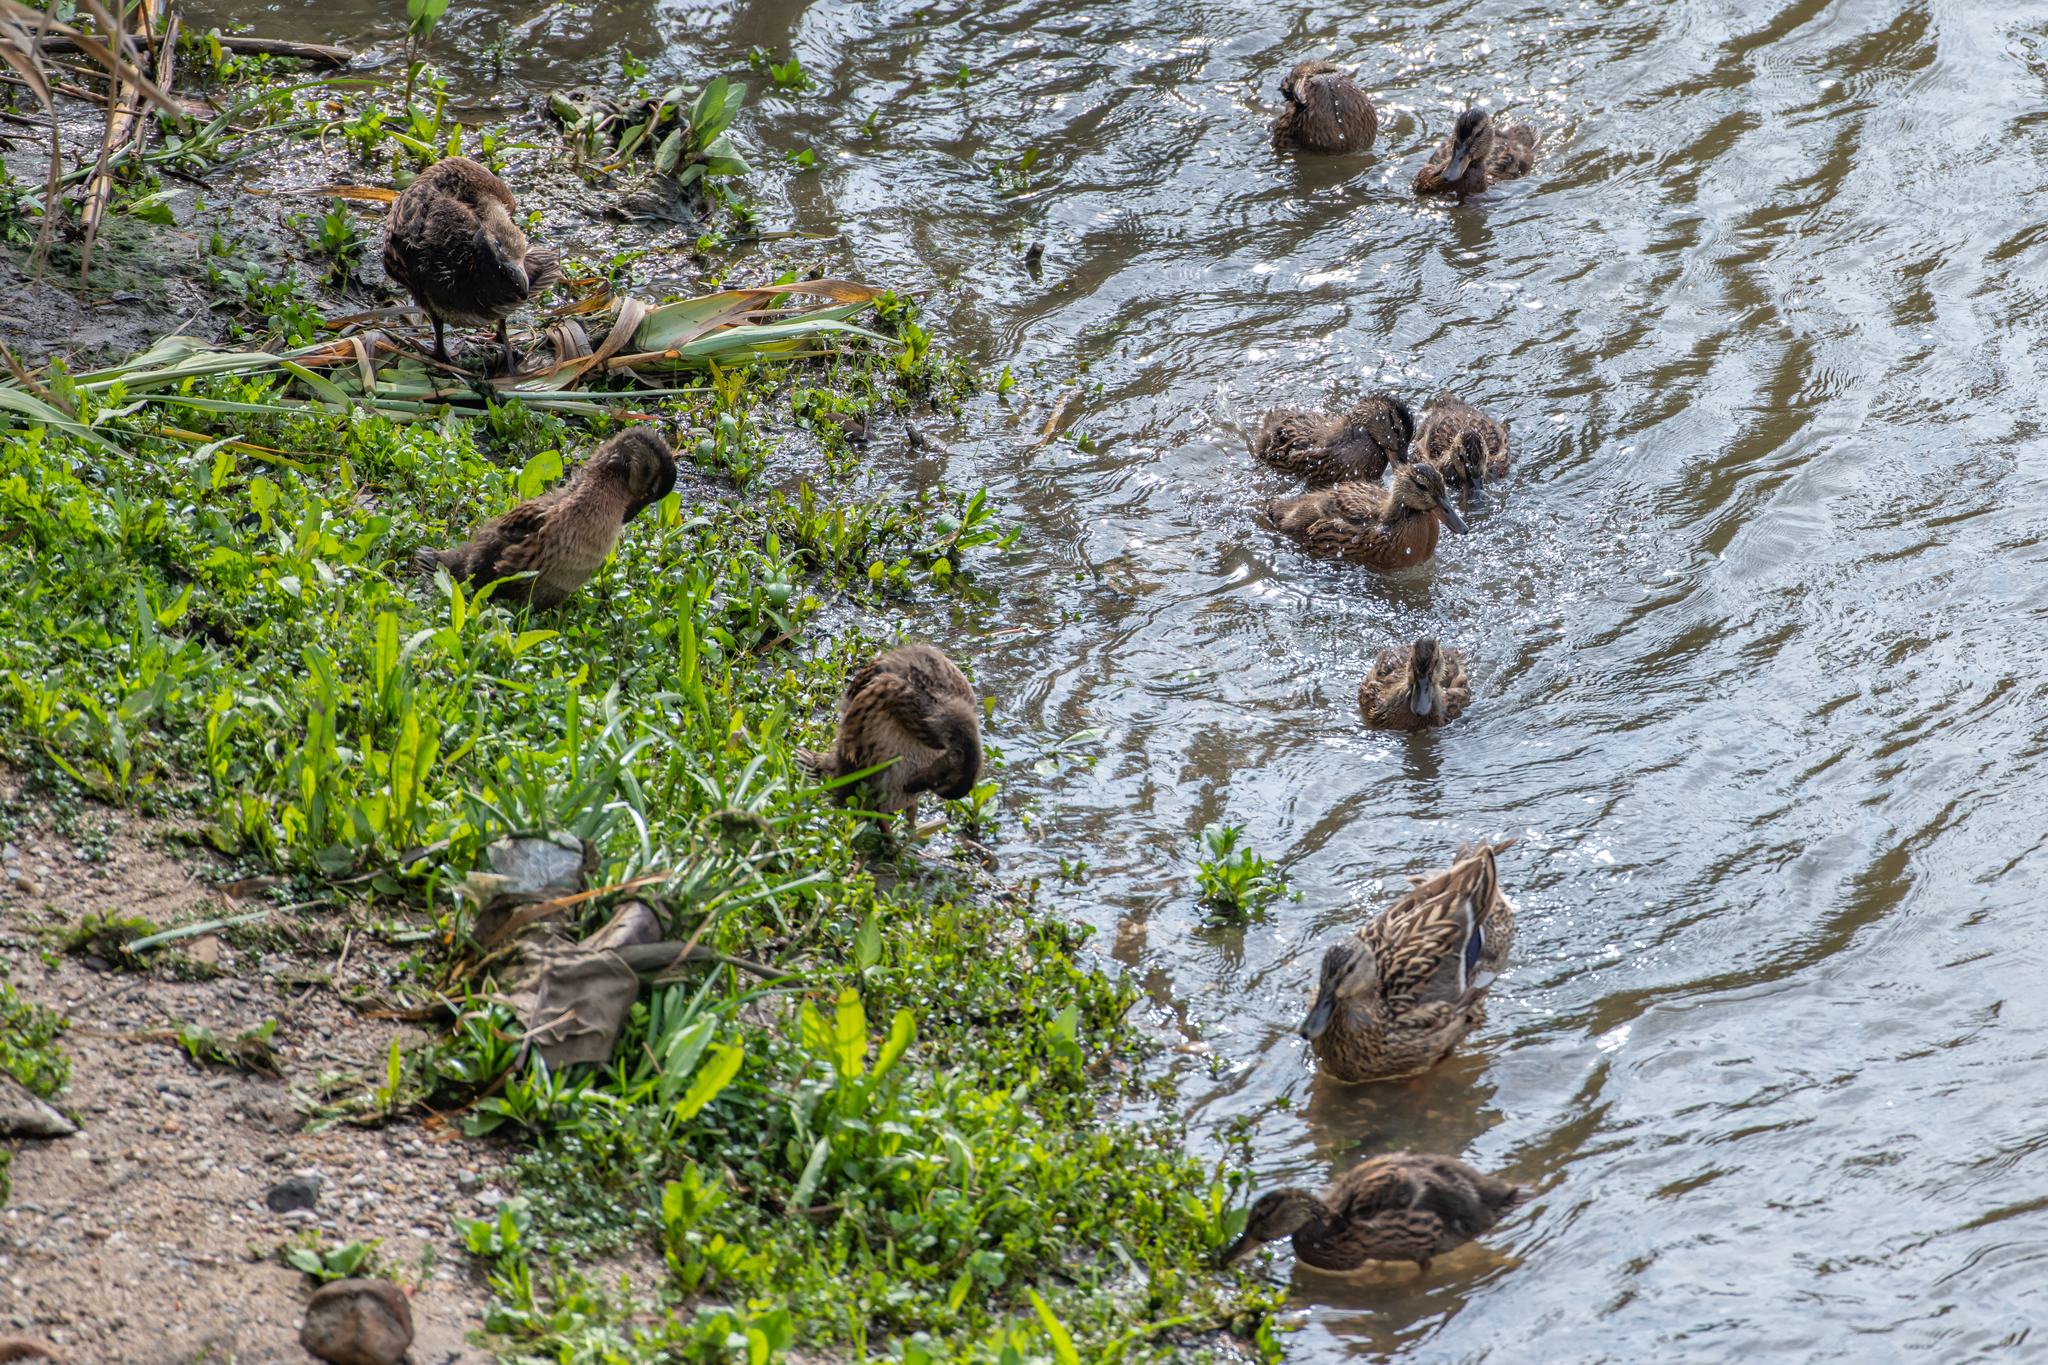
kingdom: Animalia
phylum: Chordata
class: Aves
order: Anseriformes
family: Anatidae
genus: Anas
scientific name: Anas platyrhynchos
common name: Mallard
